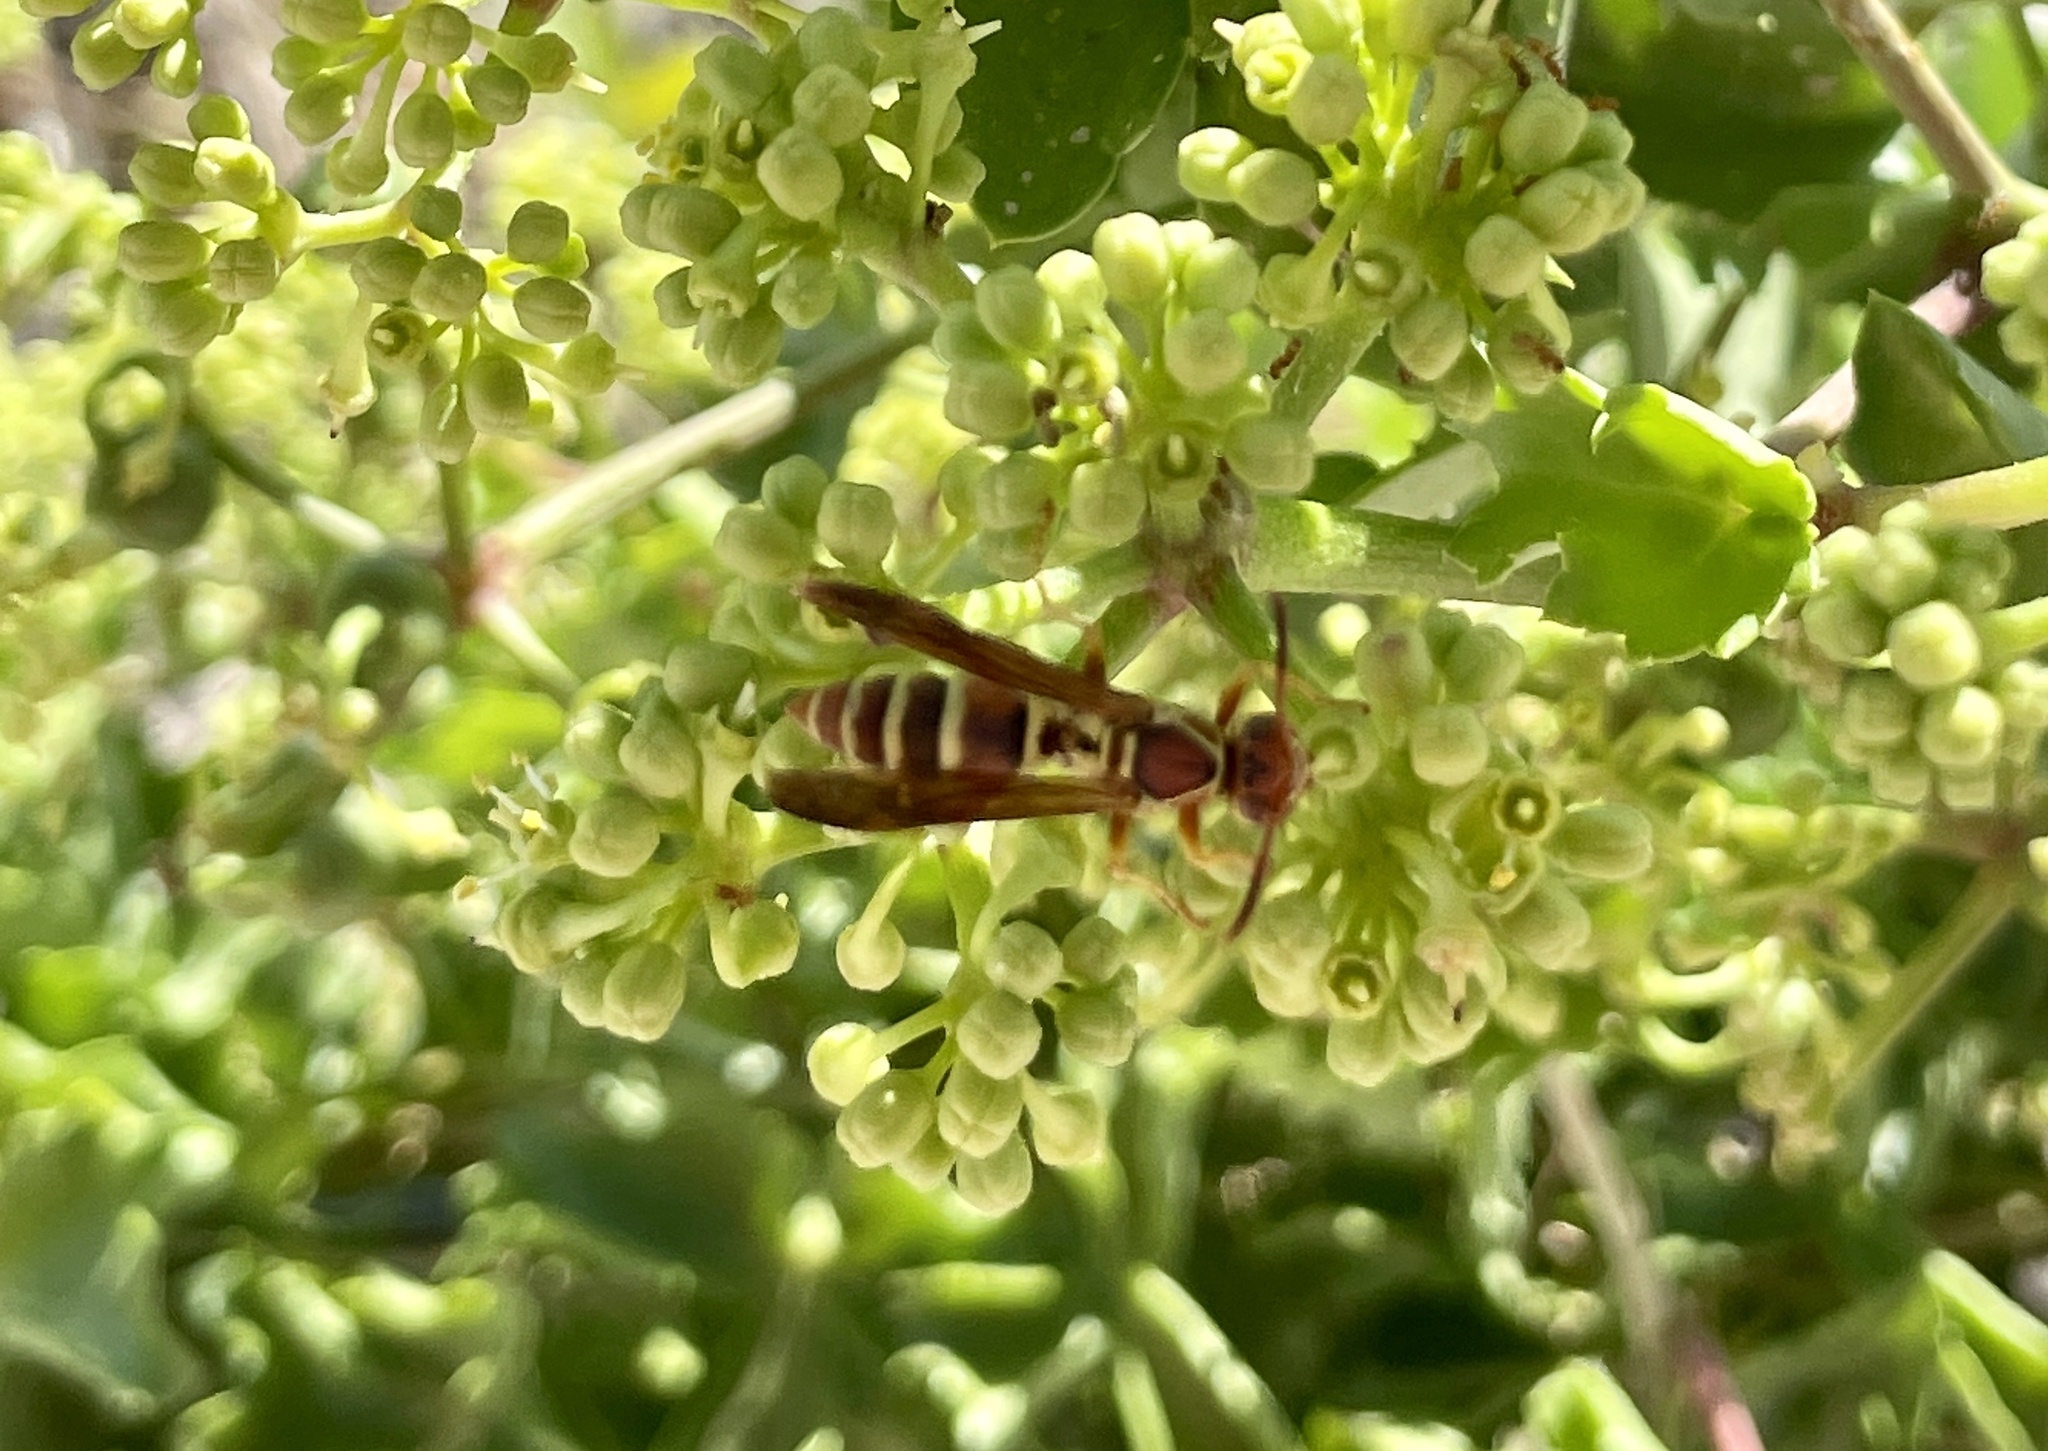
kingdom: Animalia
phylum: Arthropoda
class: Insecta
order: Hymenoptera
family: Eumenidae
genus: Polistes
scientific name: Polistes dorsalis
